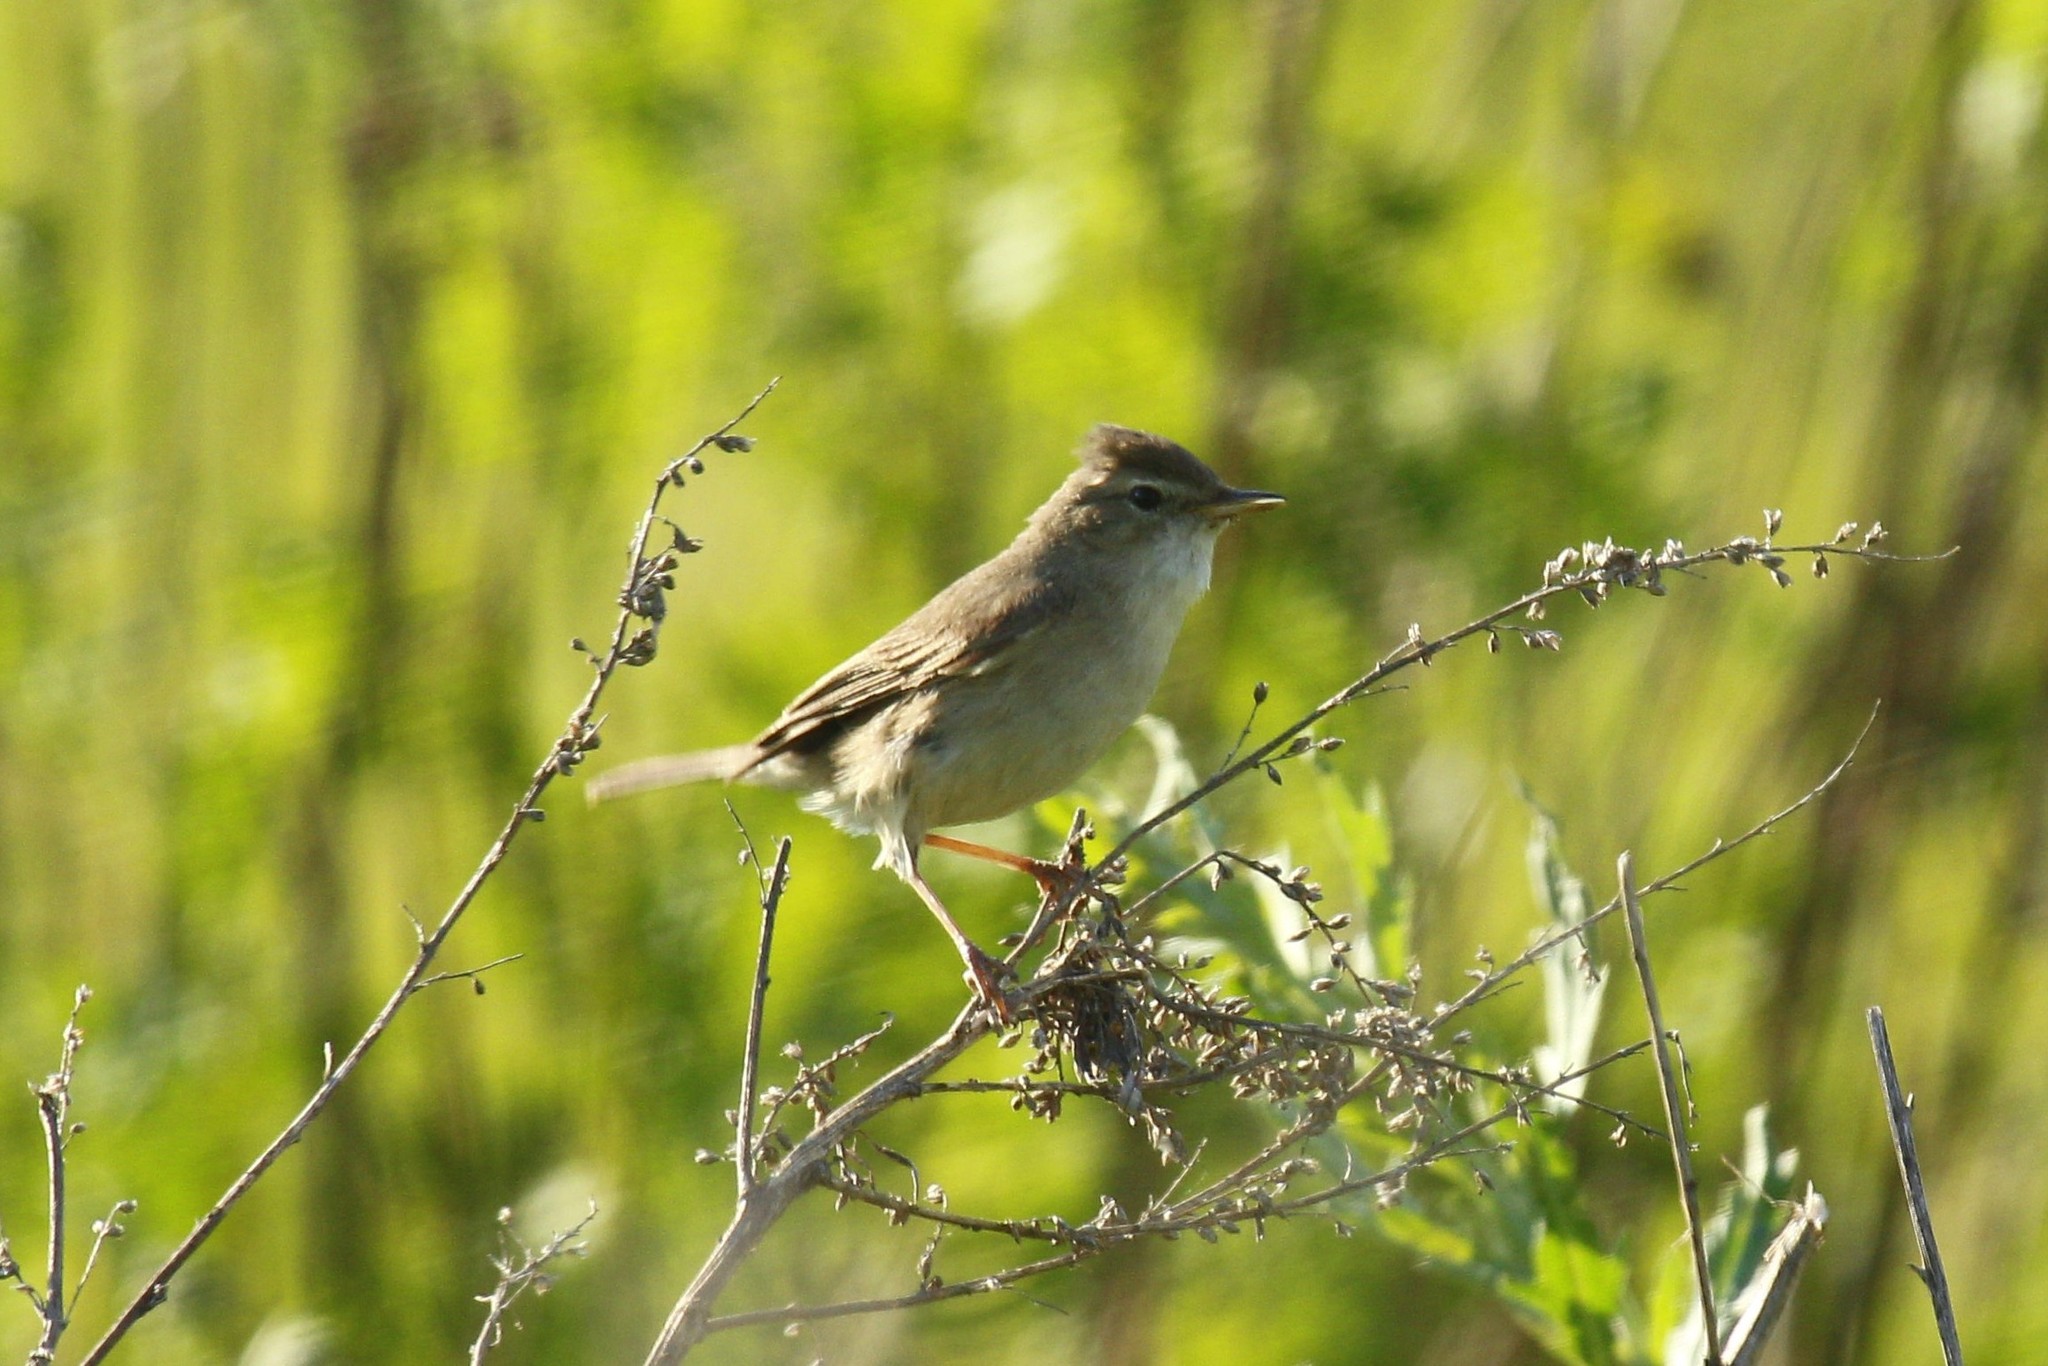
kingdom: Animalia
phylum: Chordata
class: Aves
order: Passeriformes
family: Acrocephalidae
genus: Iduna
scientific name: Iduna caligata
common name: Booted warbler
